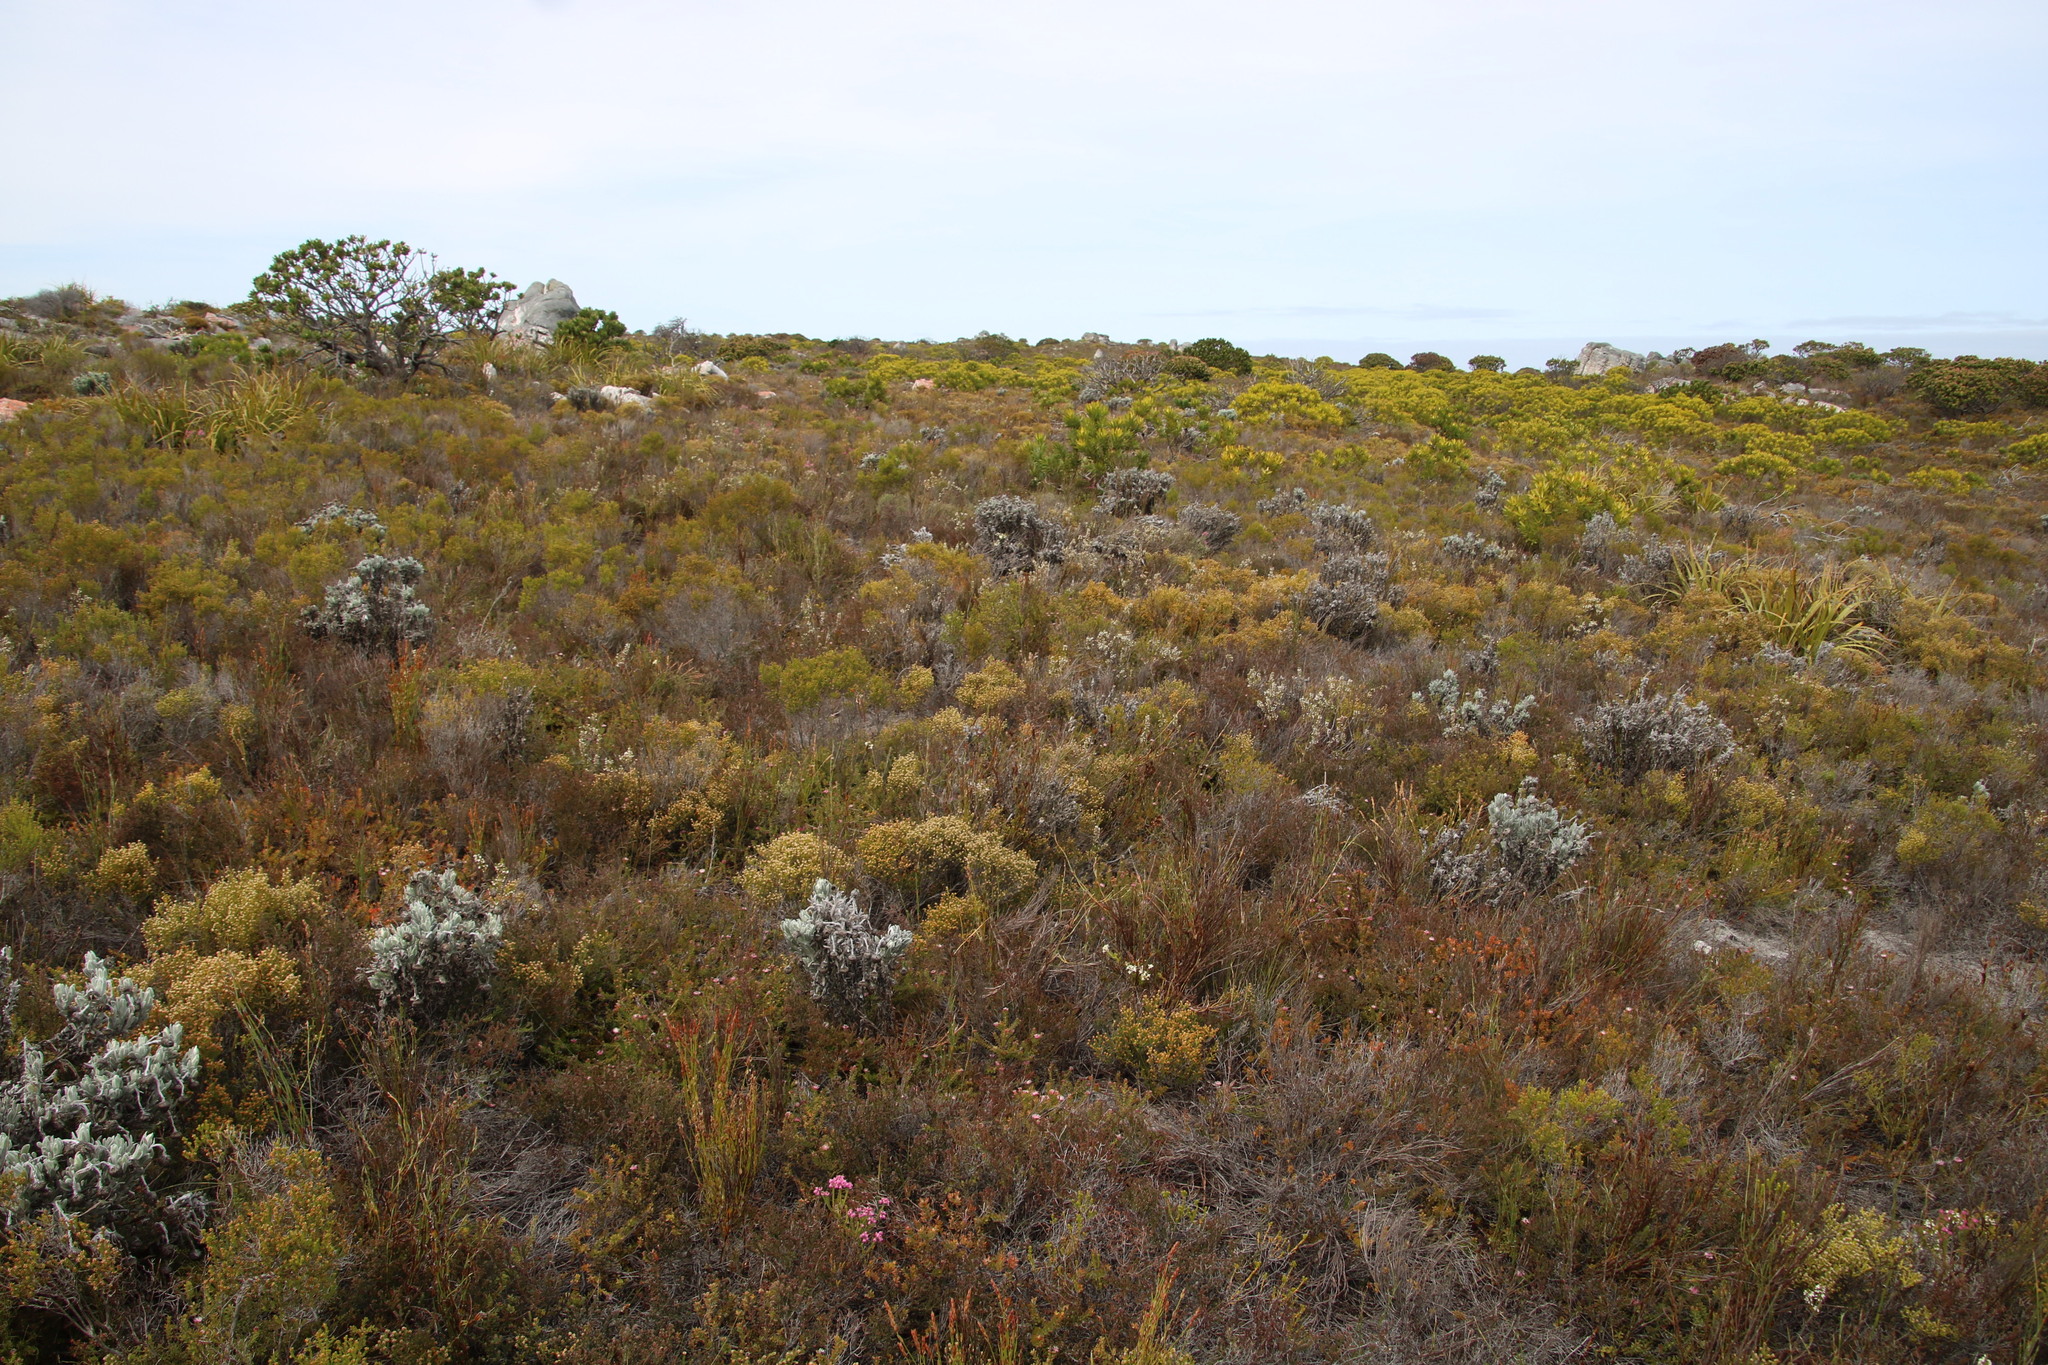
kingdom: Plantae
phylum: Tracheophyta
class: Magnoliopsida
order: Ericales
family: Ericaceae
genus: Erica
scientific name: Erica imbricata
